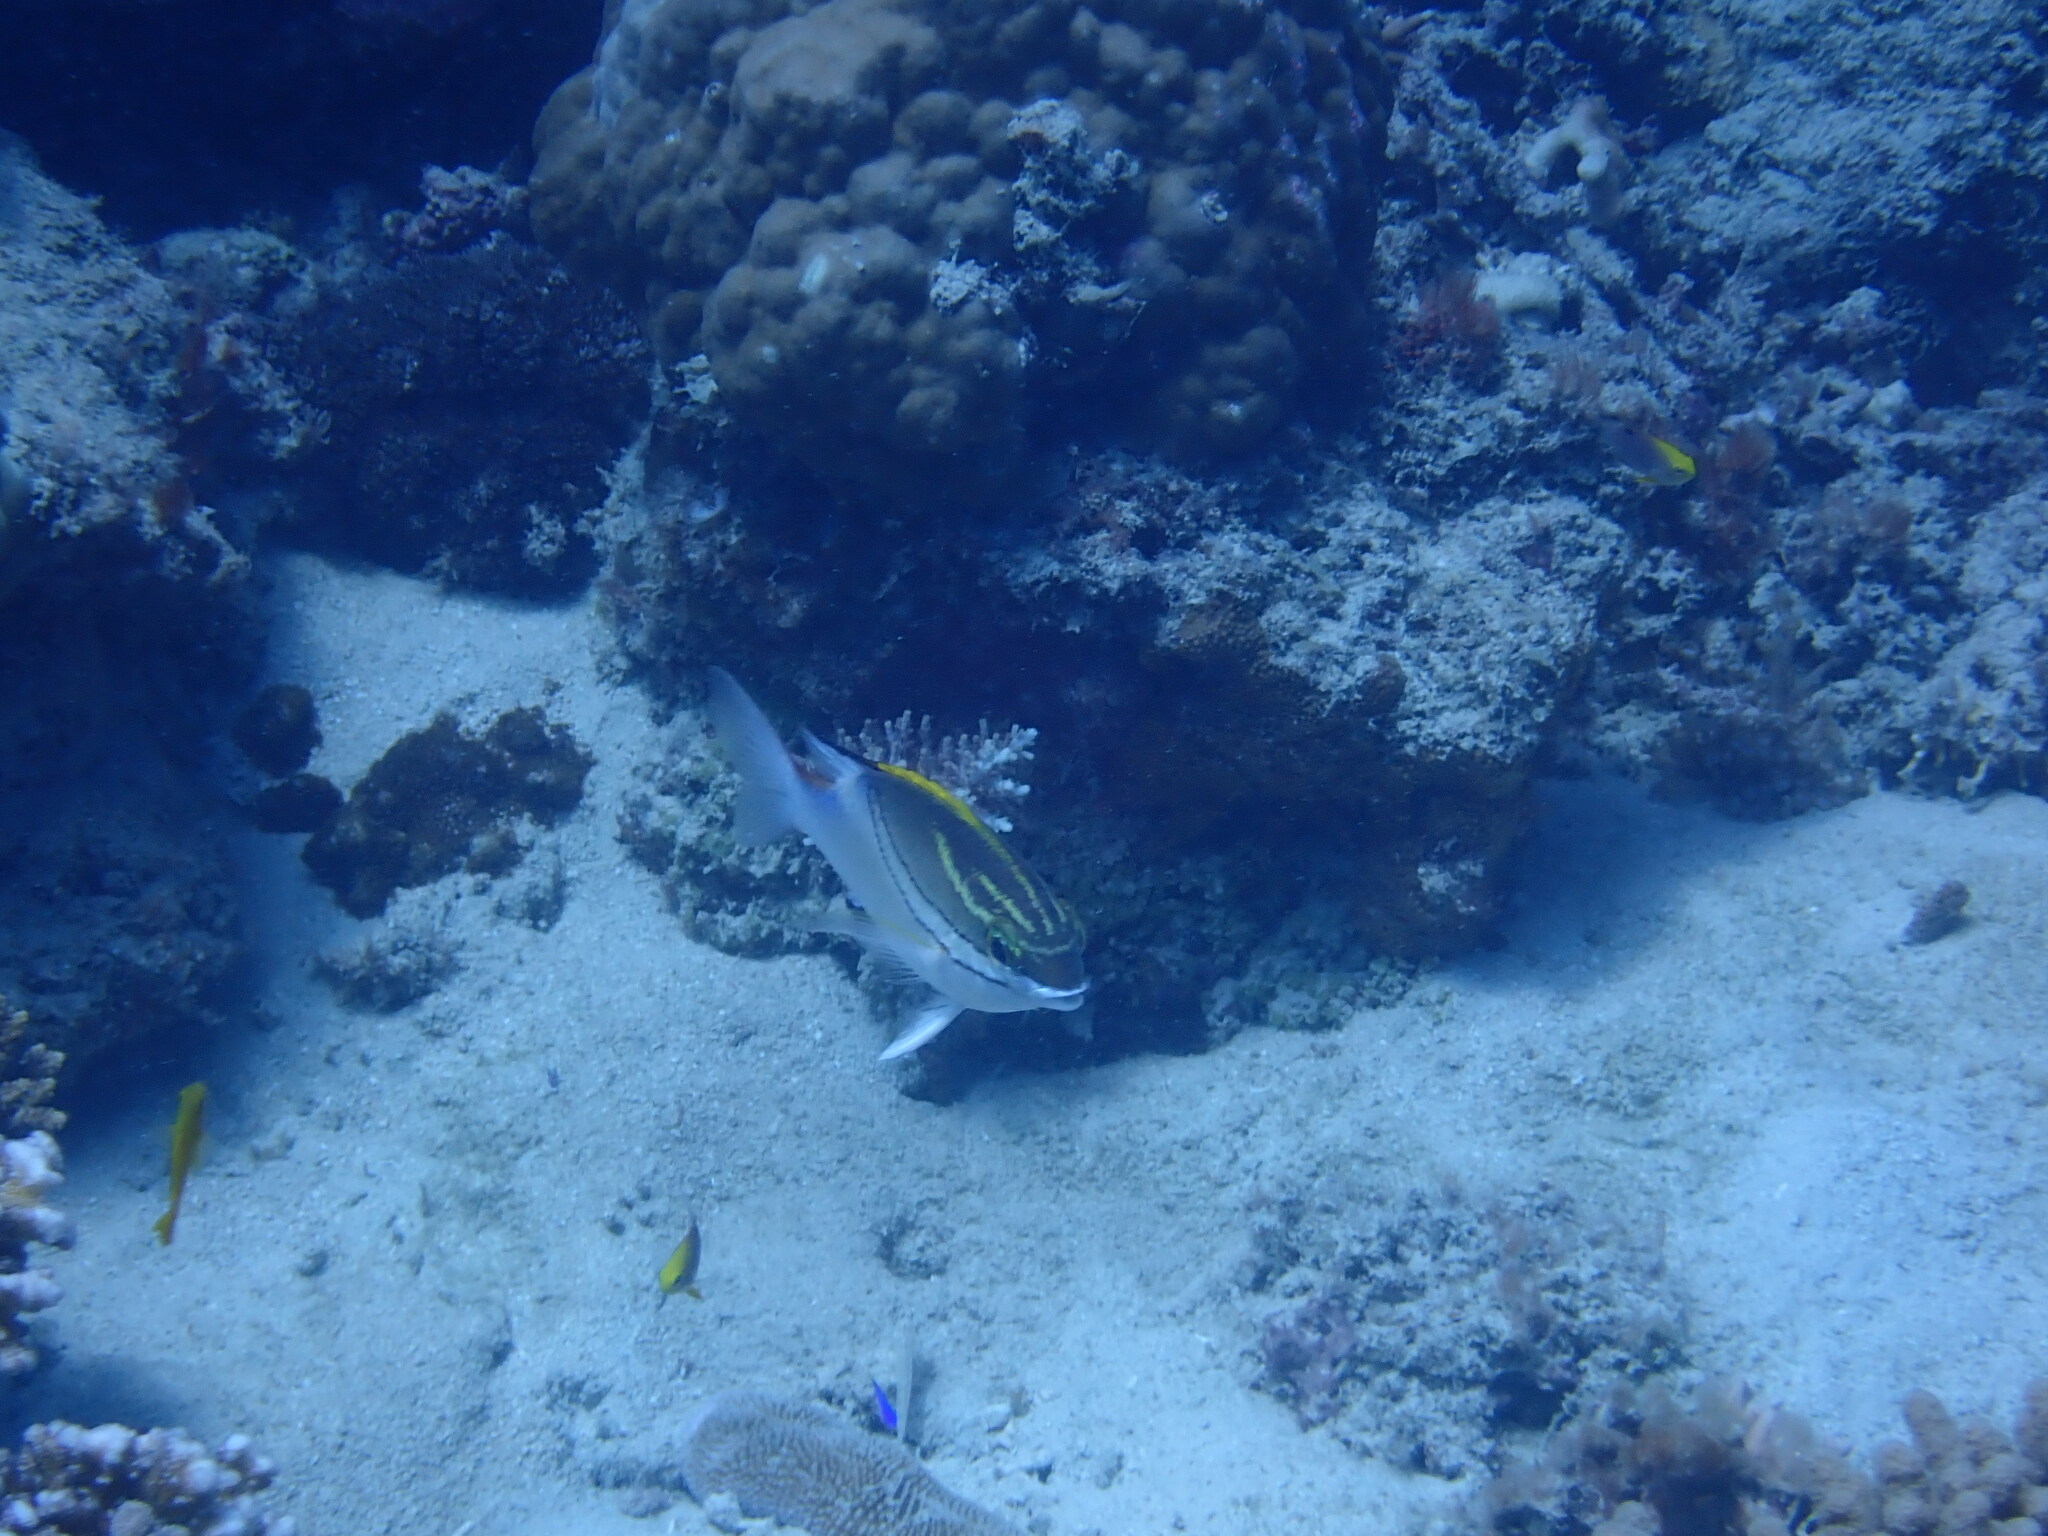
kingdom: Animalia
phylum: Chordata
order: Perciformes
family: Nemipteridae
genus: Scolopsis
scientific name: Scolopsis bilineata
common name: Two-lined monocle bream
